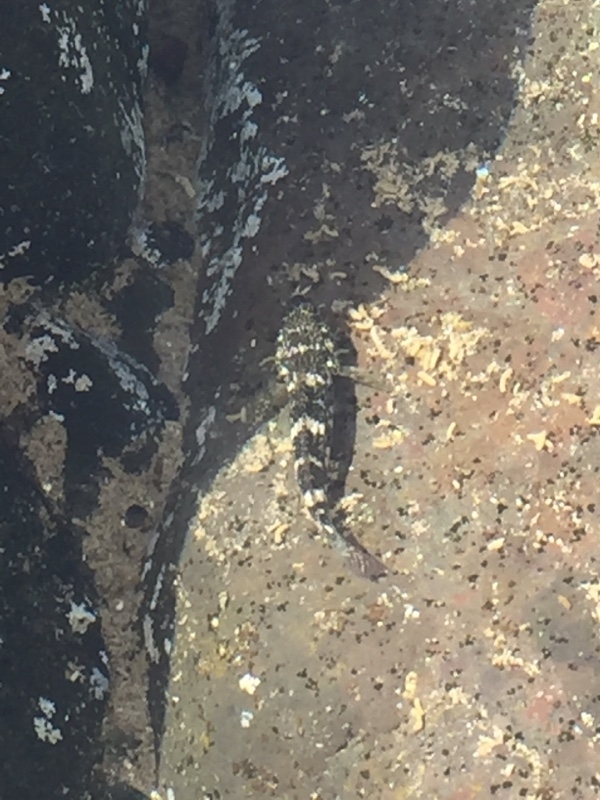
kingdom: Animalia
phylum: Chordata
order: Perciformes
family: Gobiidae
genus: Mauligobius
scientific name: Mauligobius maderensis
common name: Rock goby
